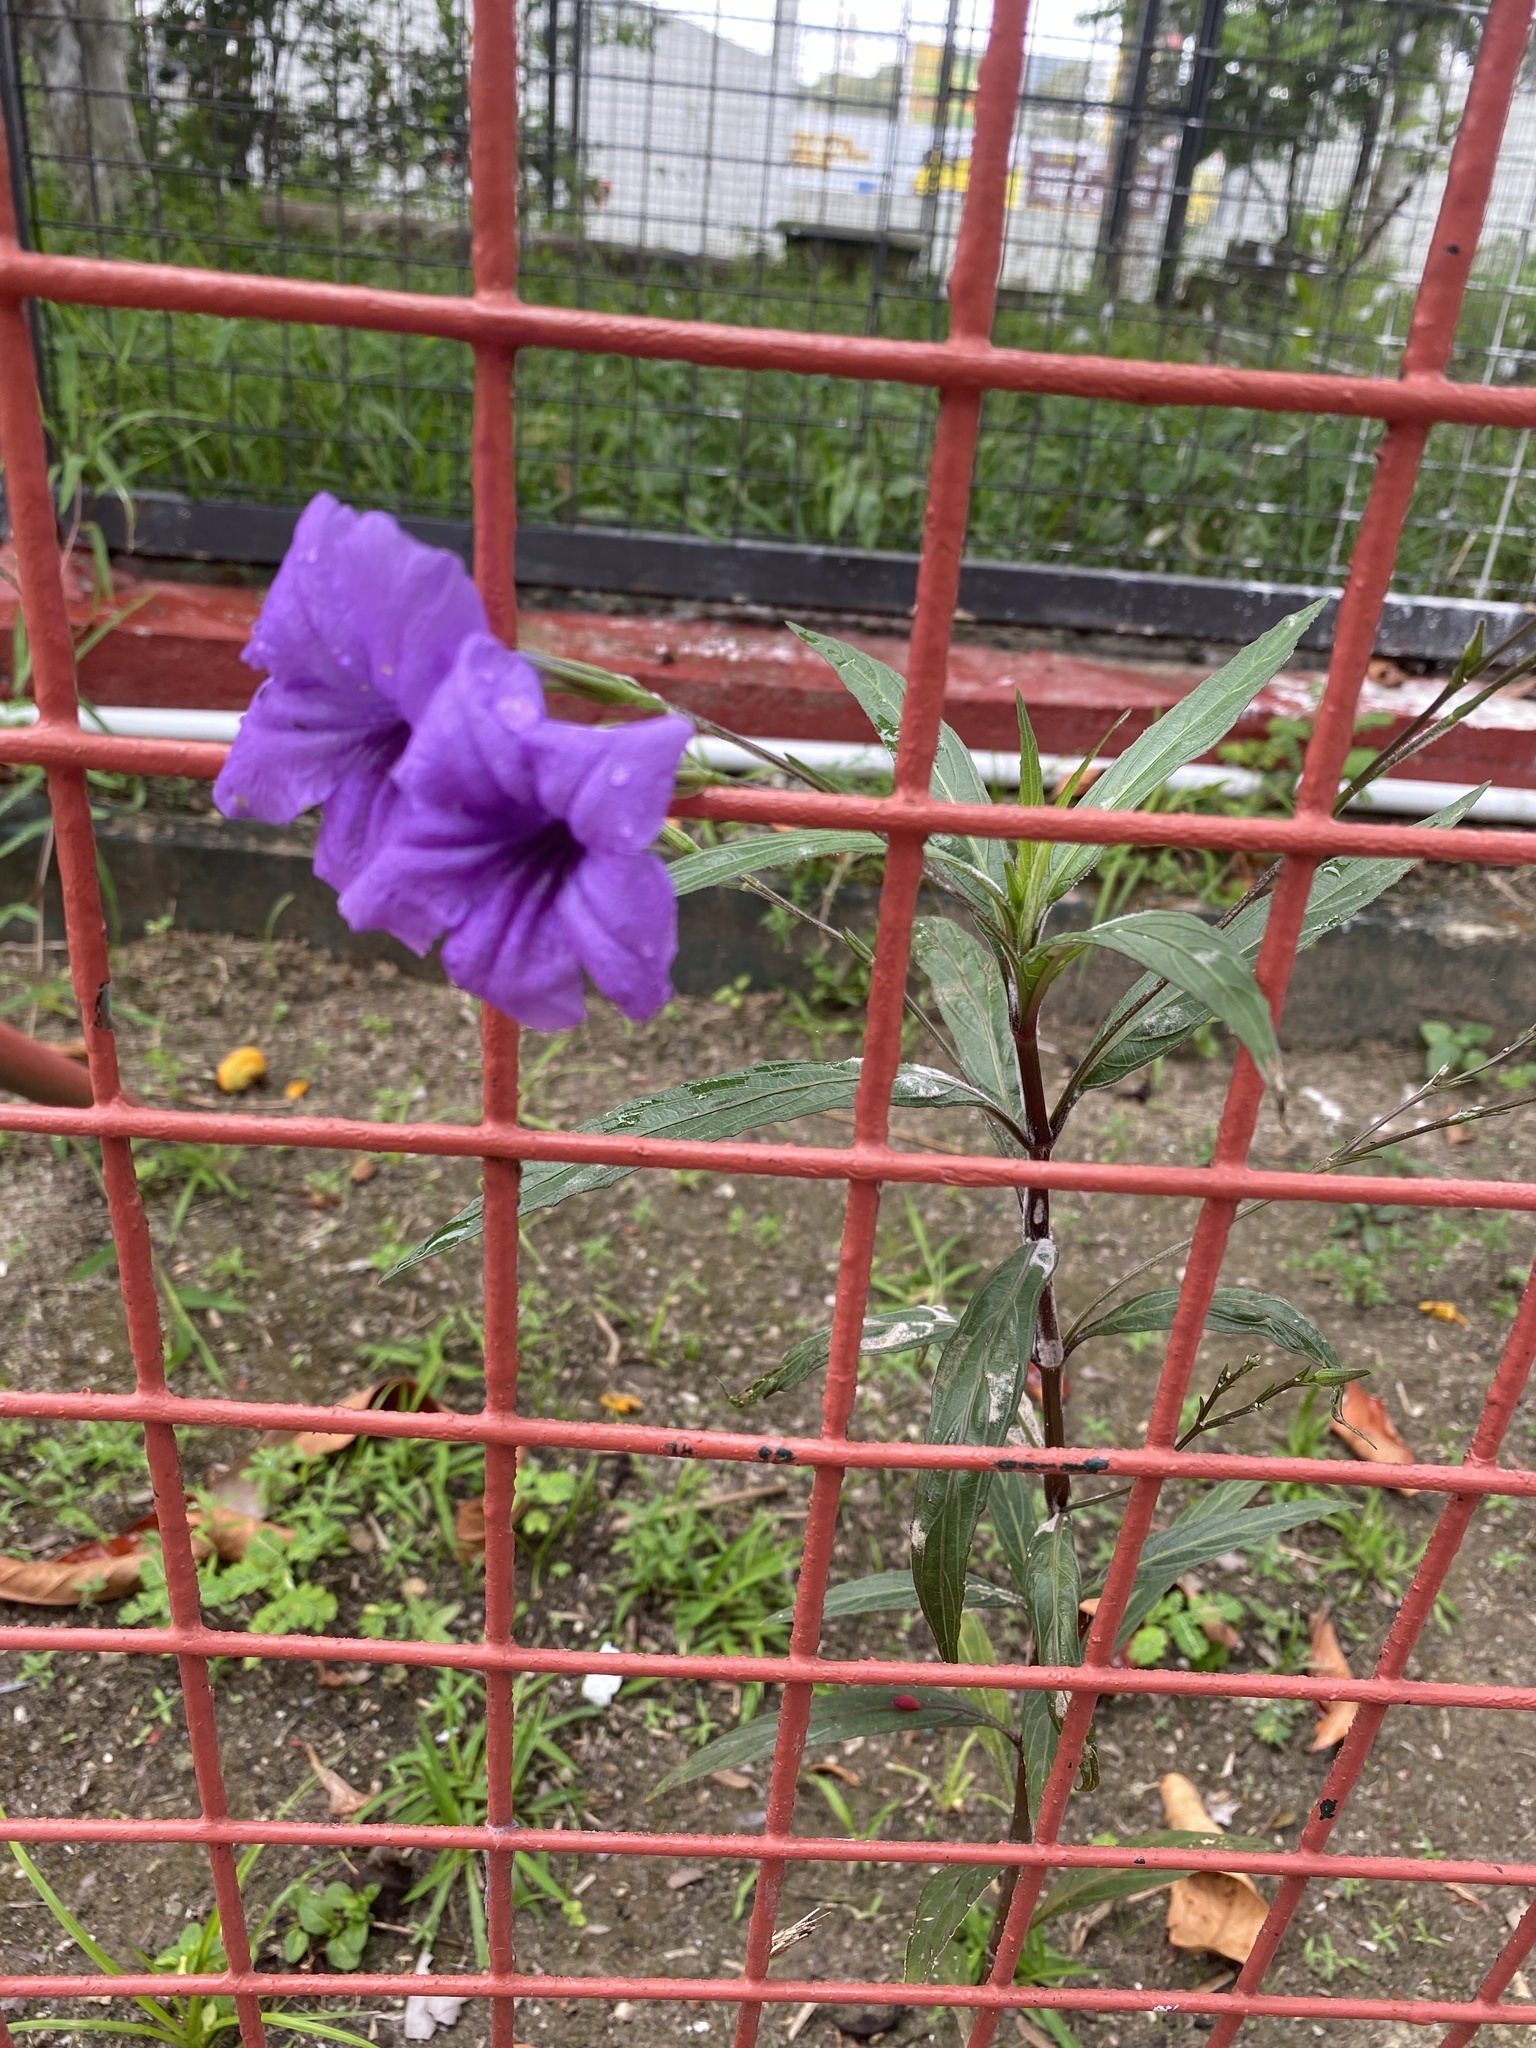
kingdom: Plantae
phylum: Tracheophyta
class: Magnoliopsida
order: Lamiales
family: Acanthaceae
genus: Ruellia
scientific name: Ruellia simplex
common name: Softseed wild petunia
